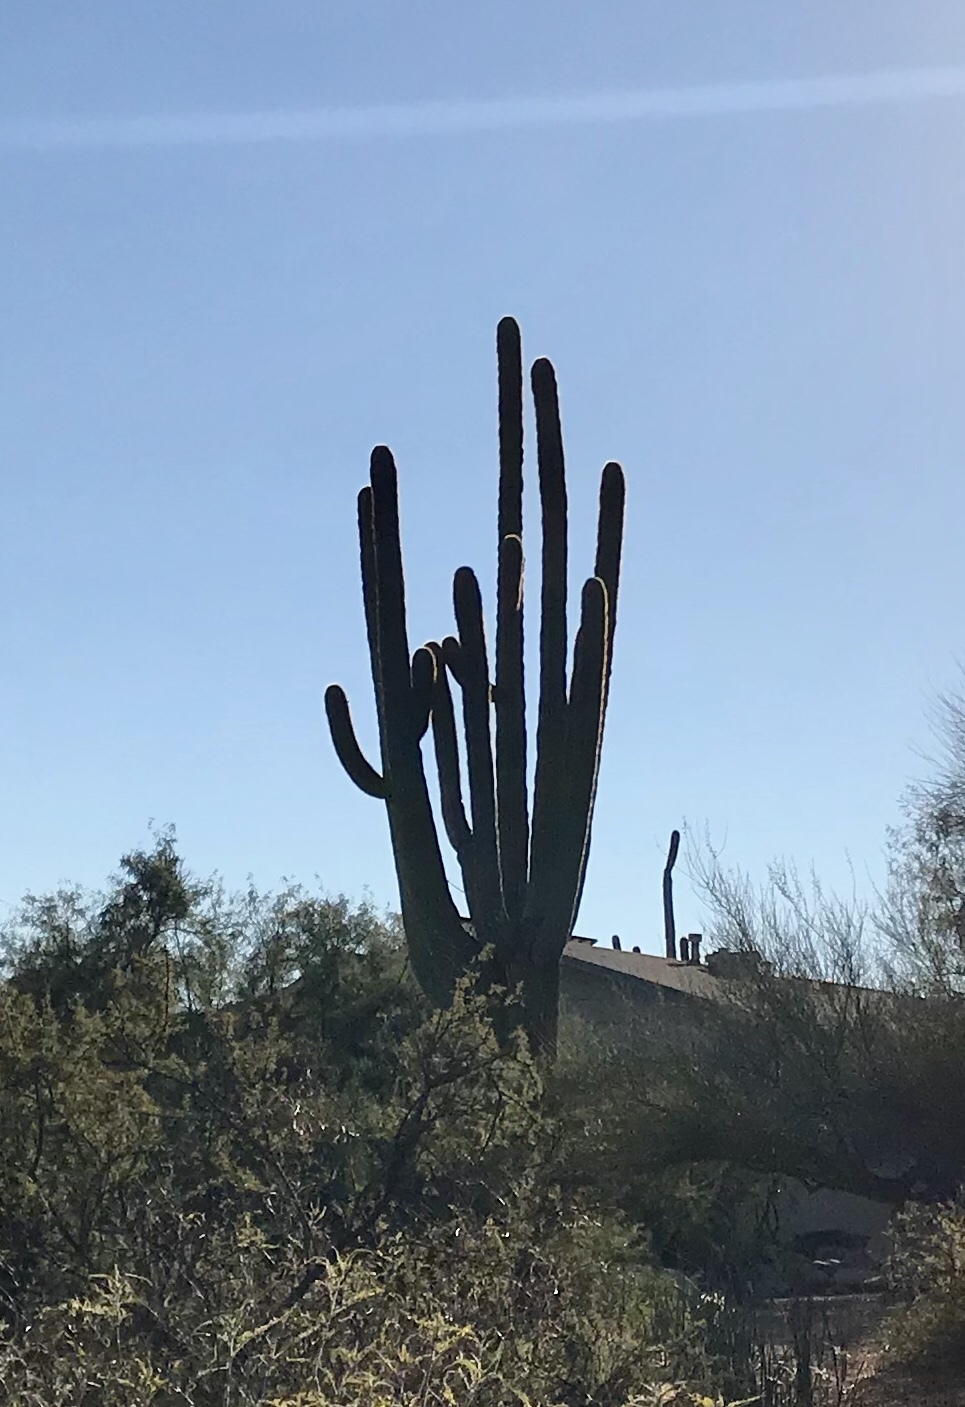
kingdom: Plantae
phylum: Tracheophyta
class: Magnoliopsida
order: Caryophyllales
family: Cactaceae
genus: Carnegiea
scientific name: Carnegiea gigantea
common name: Saguaro
